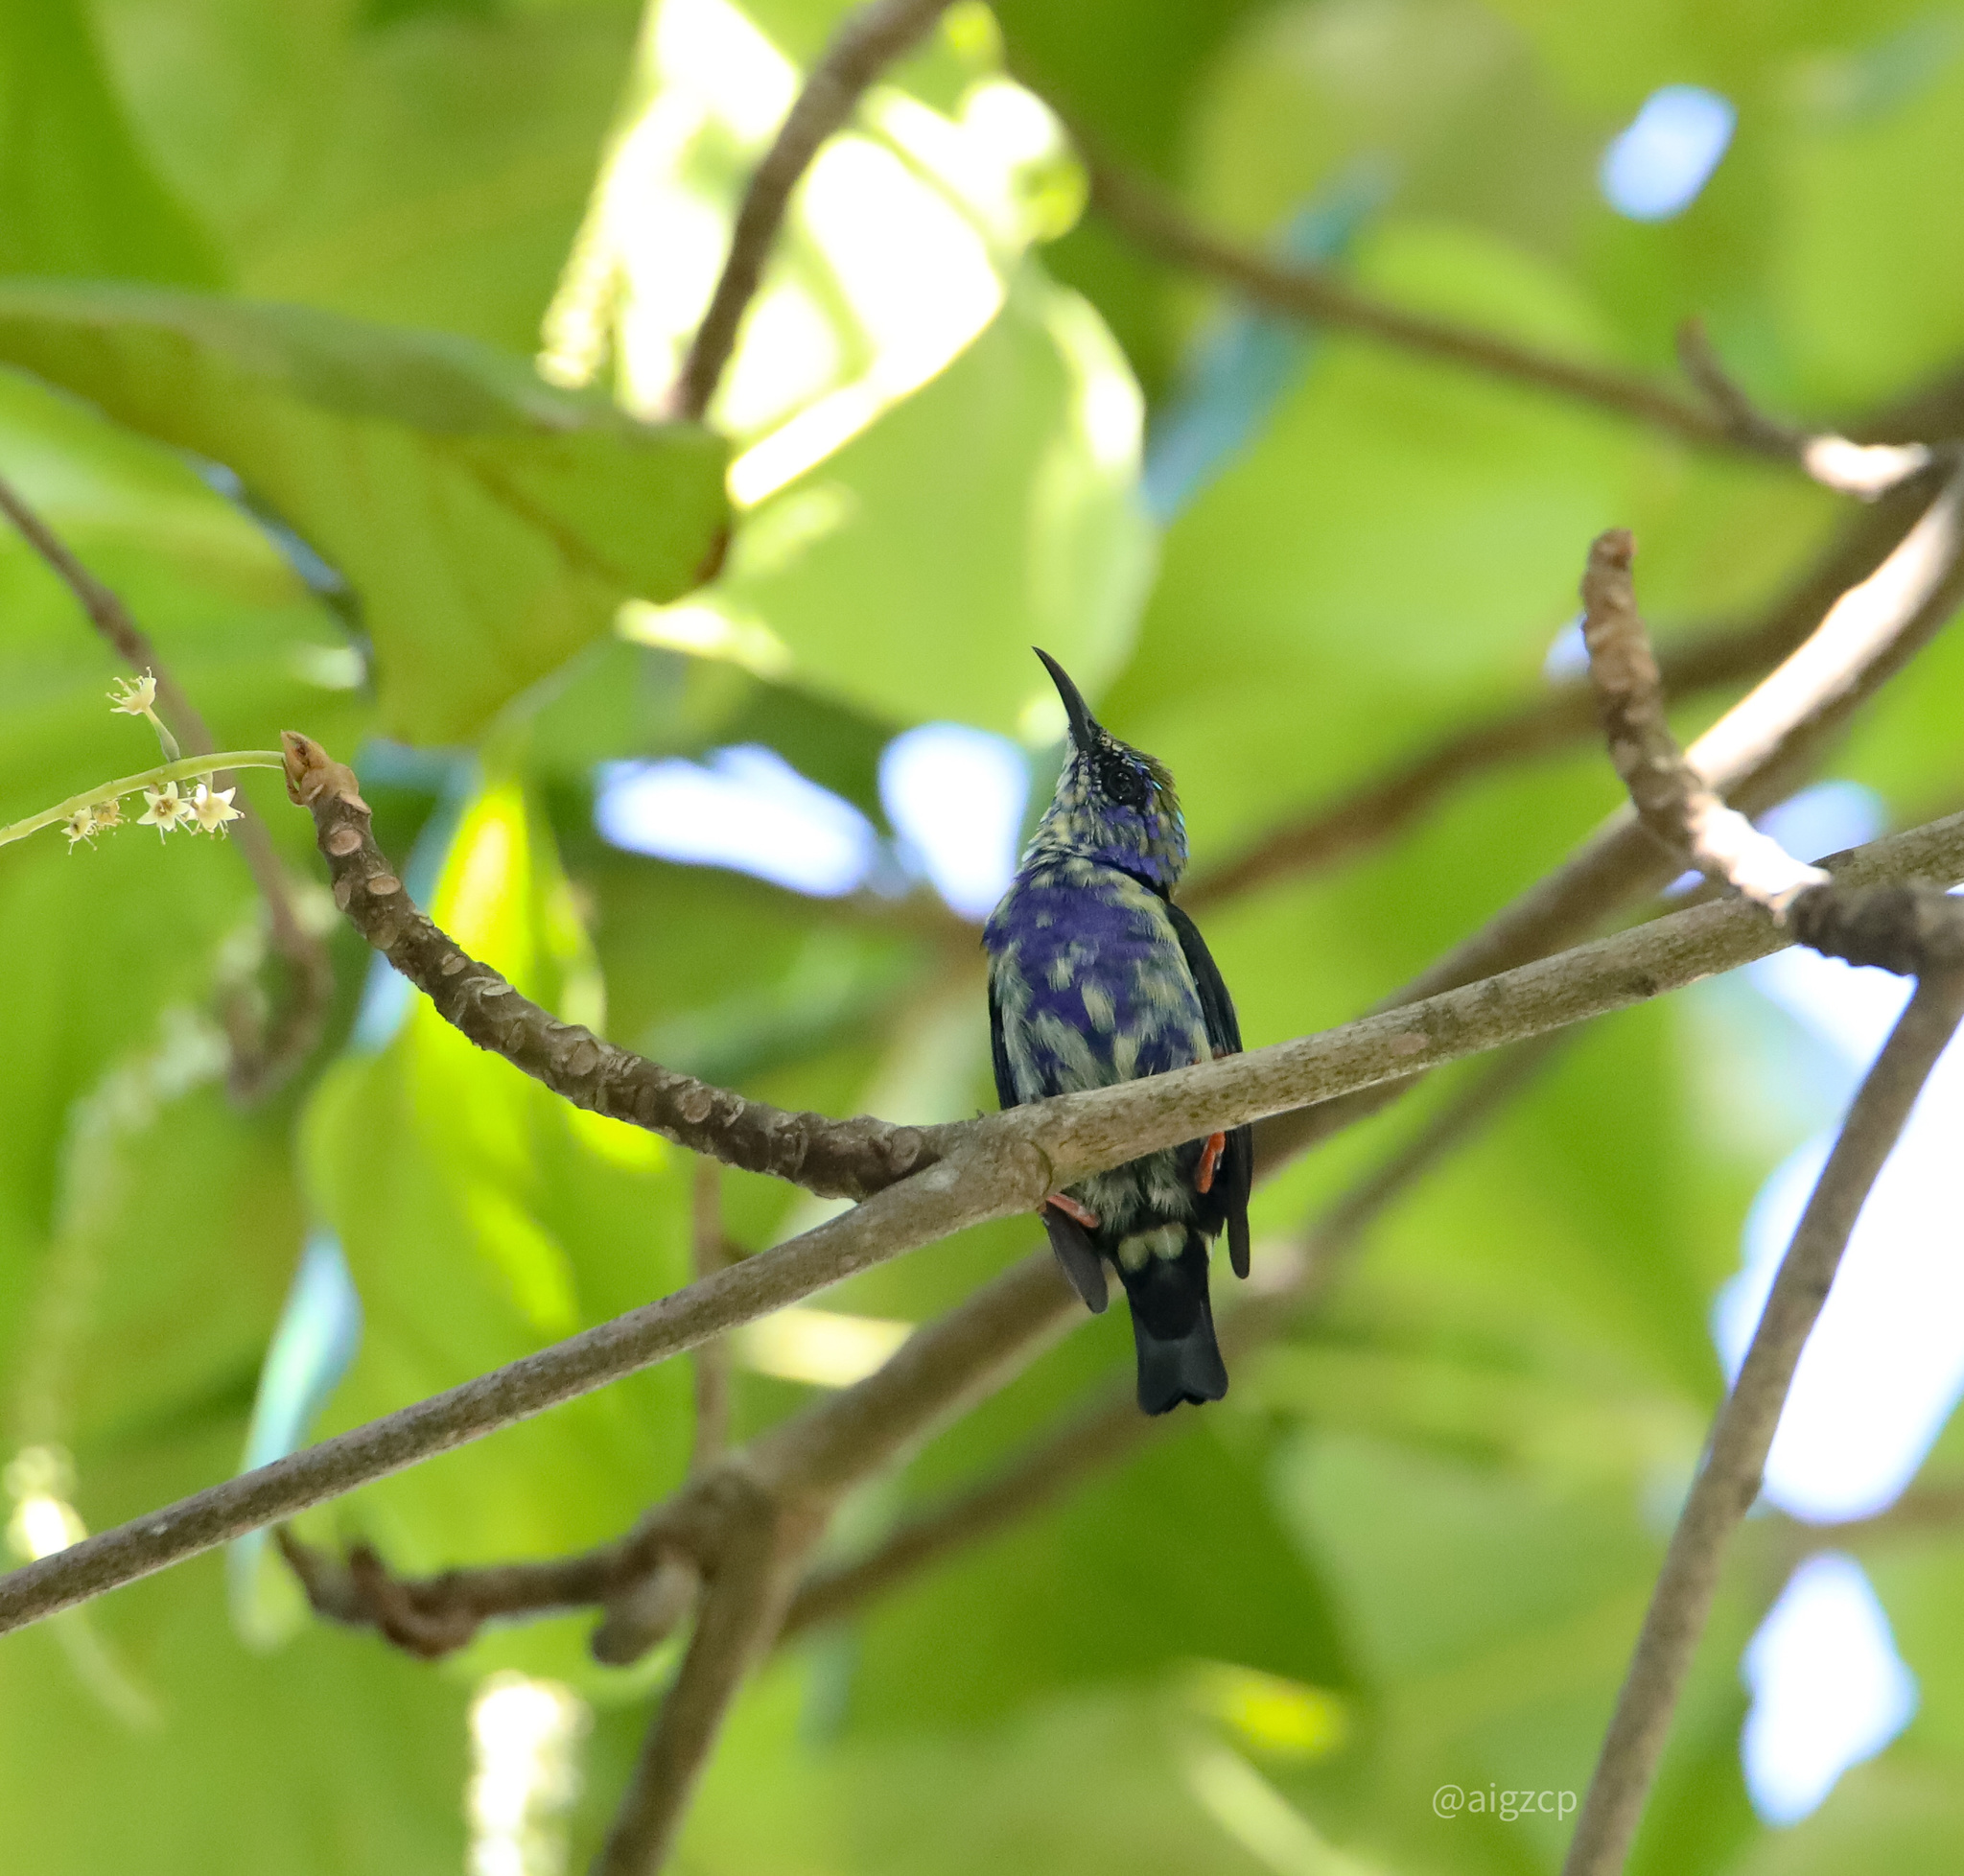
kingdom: Animalia
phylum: Chordata
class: Aves
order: Passeriformes
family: Thraupidae
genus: Cyanerpes
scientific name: Cyanerpes cyaneus
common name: Red-legged honeycreeper
